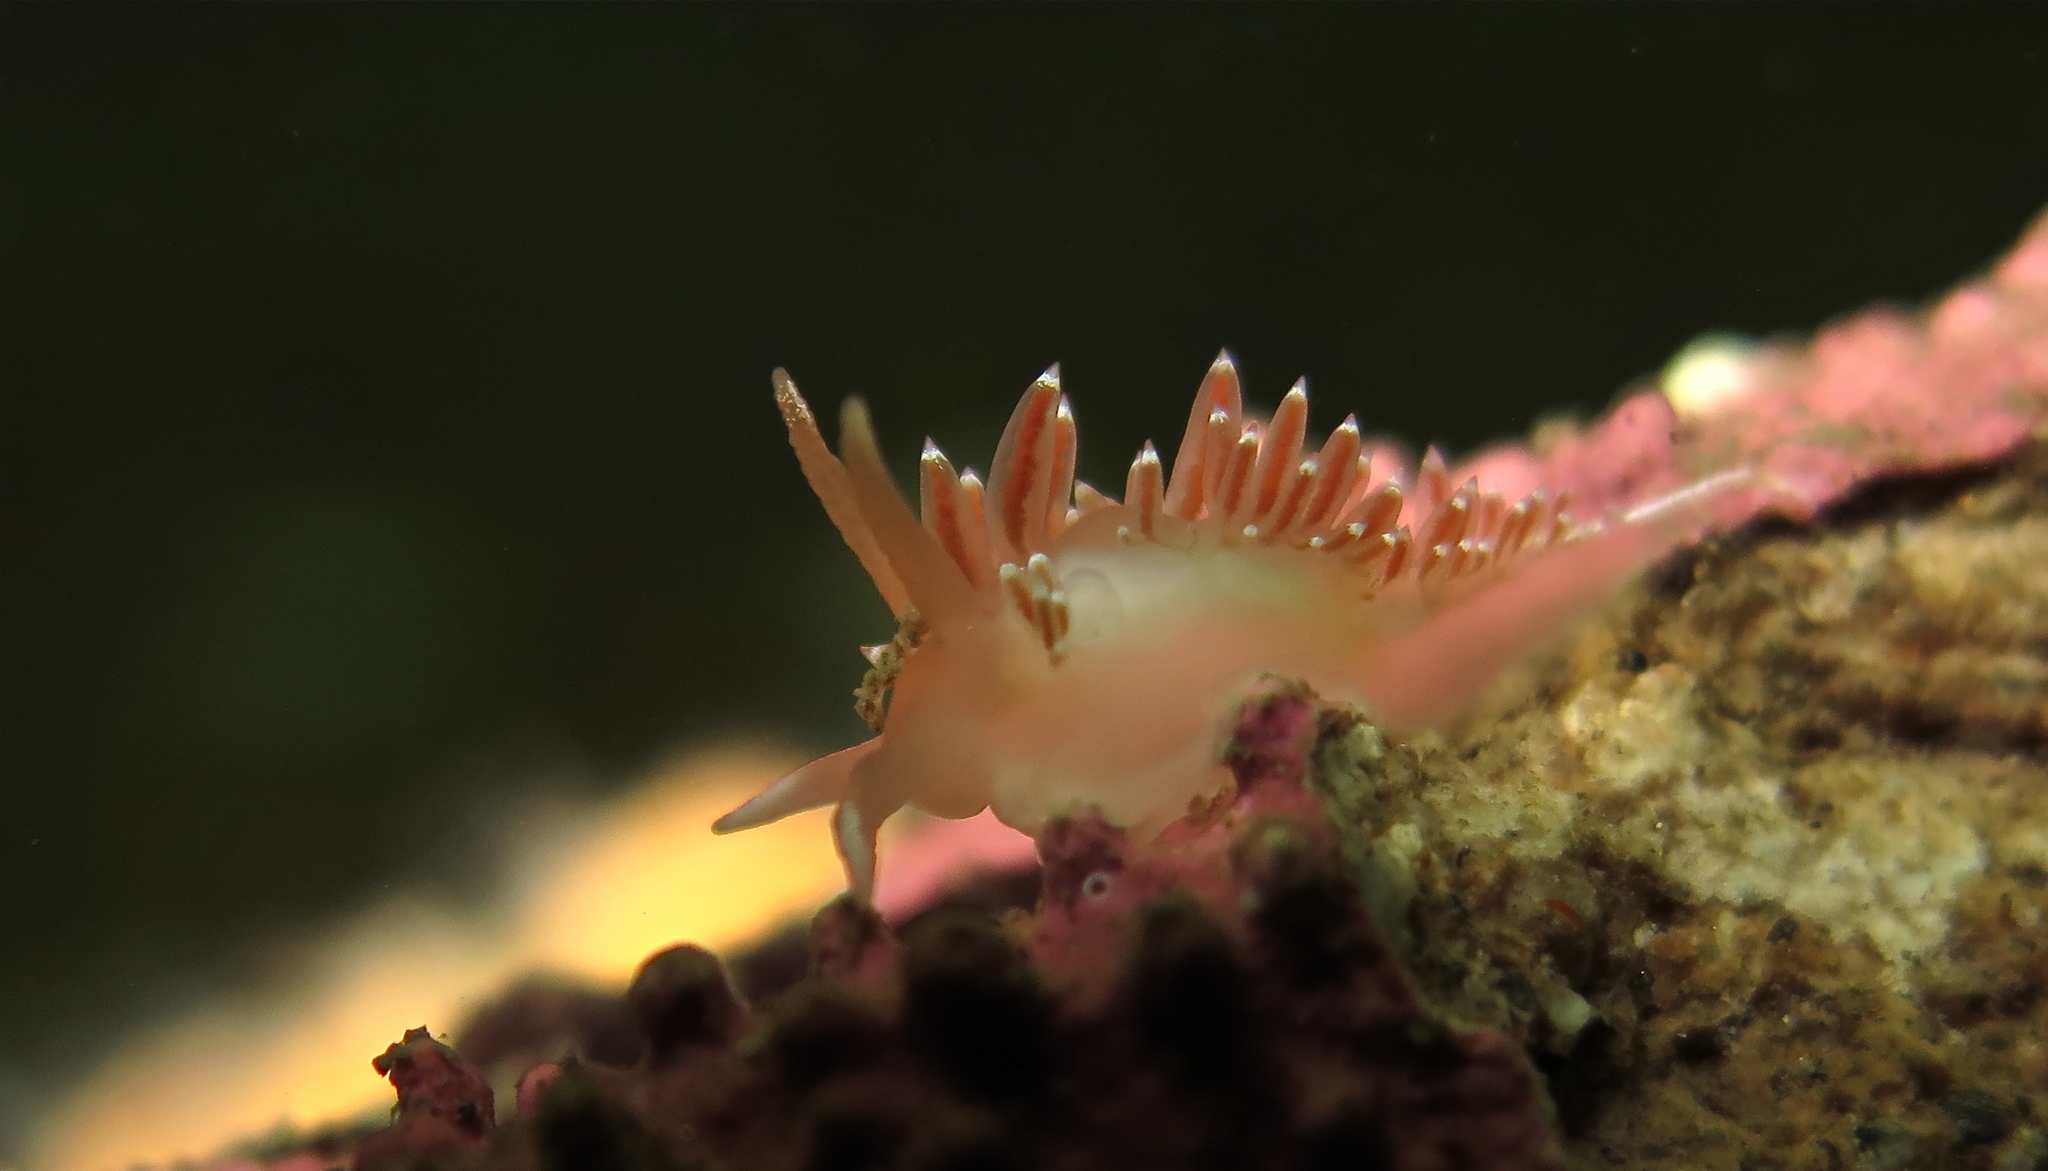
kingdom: Animalia
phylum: Mollusca
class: Gastropoda
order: Nudibranchia
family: Coryphellidae
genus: Coryphella
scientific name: Coryphella verrucosa
